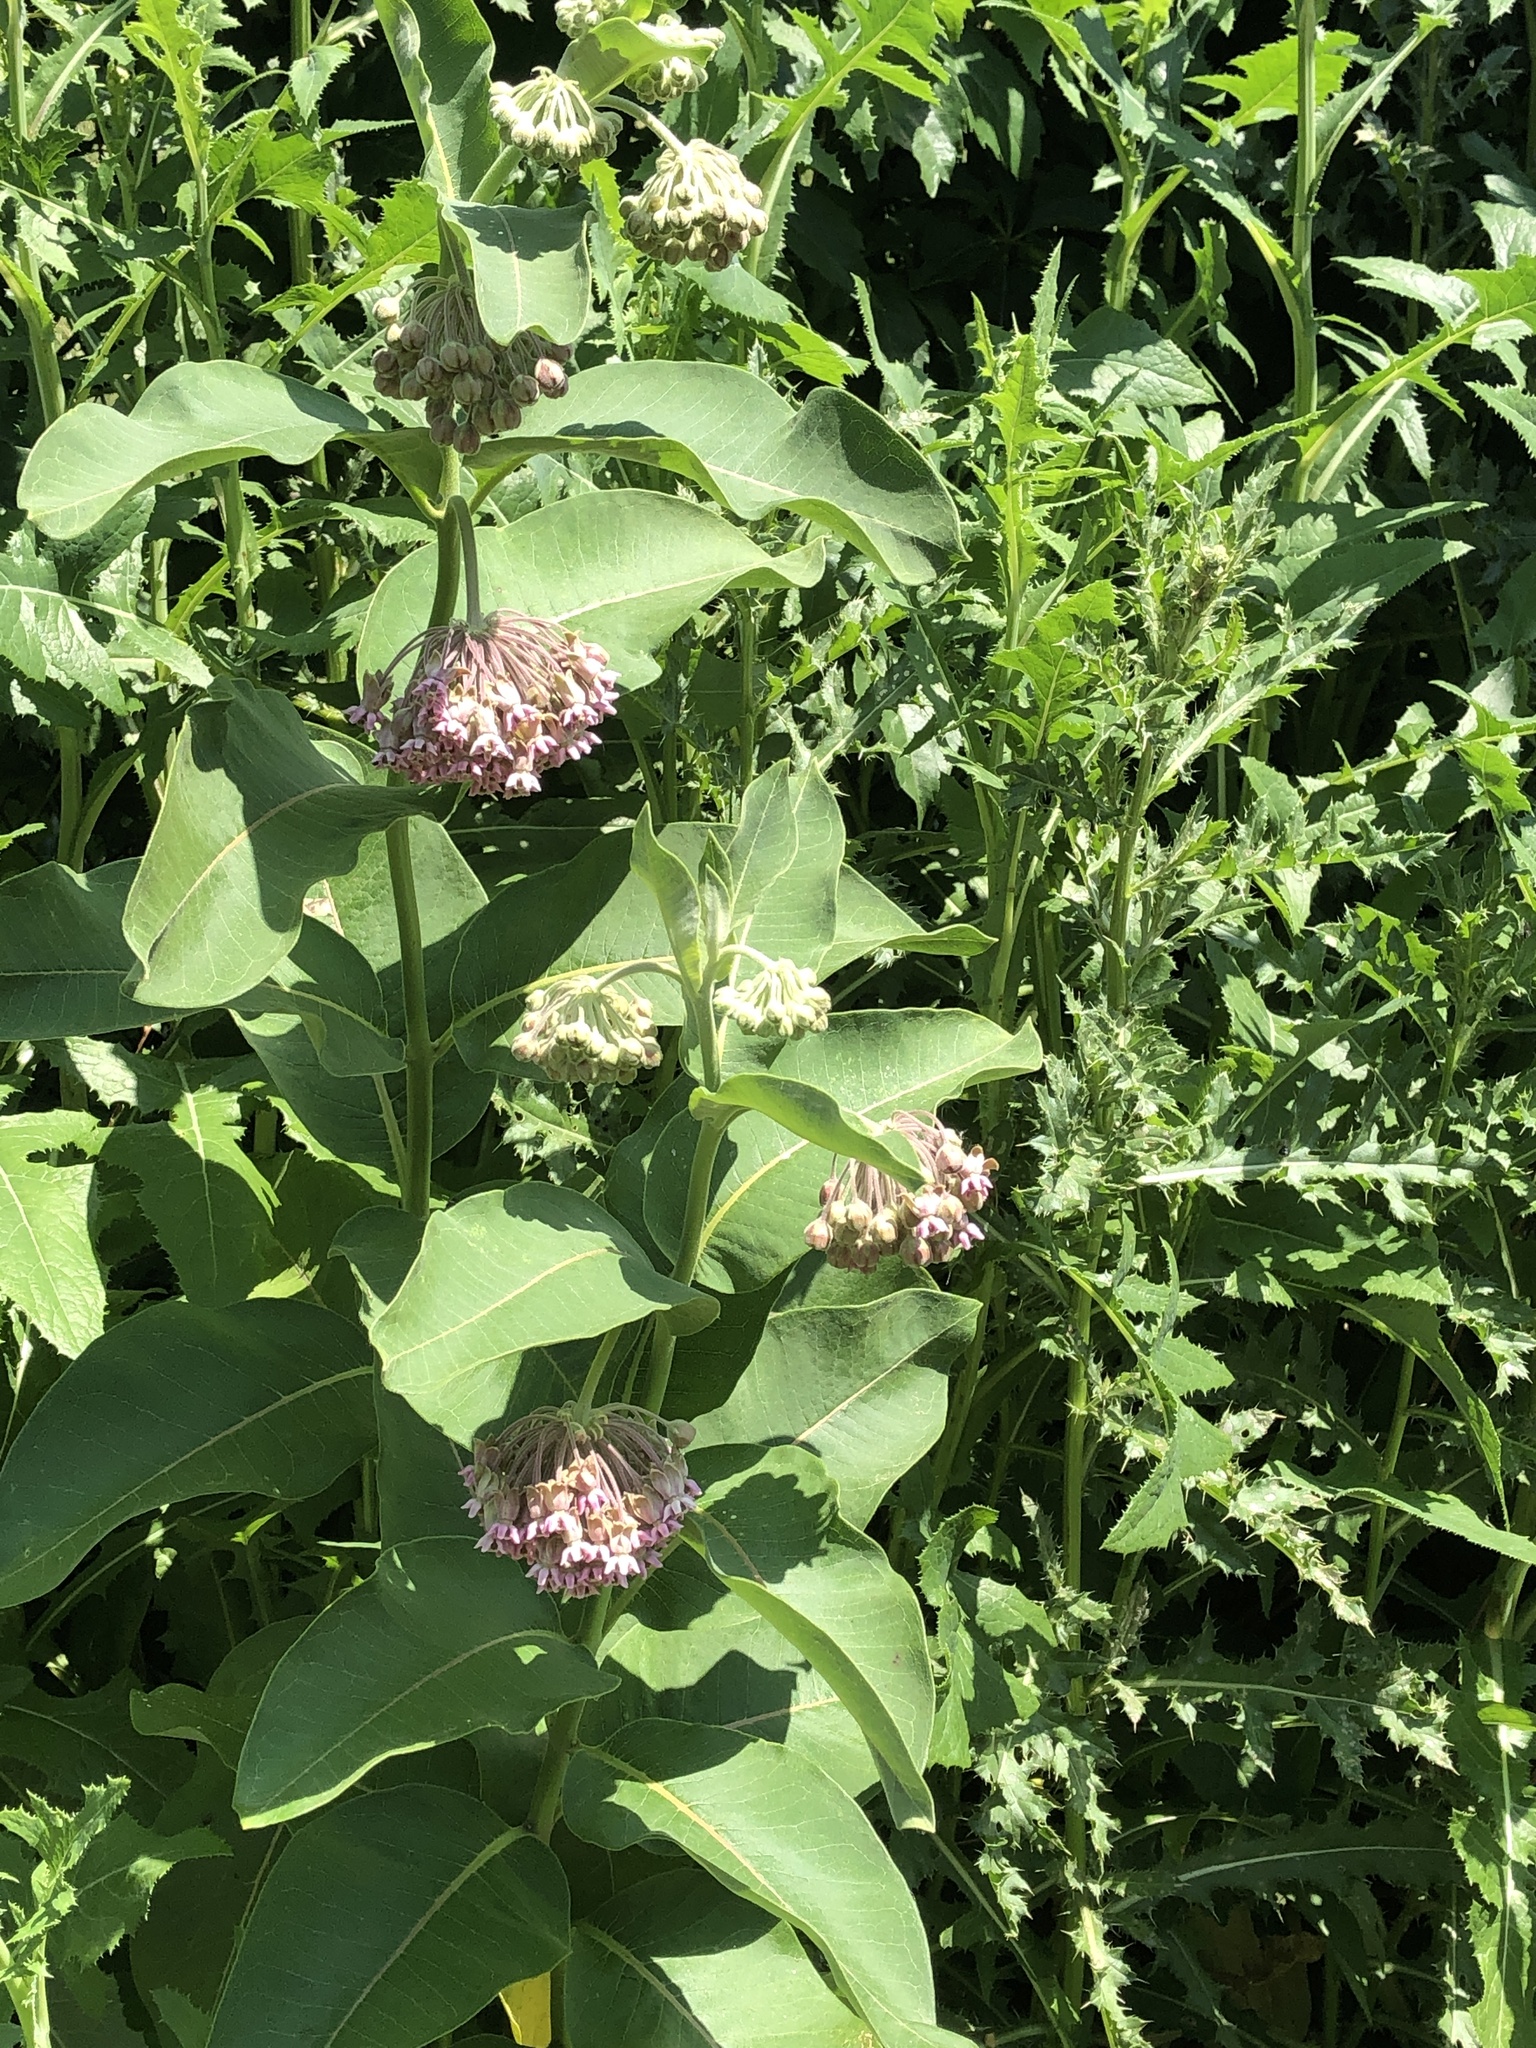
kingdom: Plantae
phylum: Tracheophyta
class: Magnoliopsida
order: Gentianales
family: Apocynaceae
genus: Asclepias
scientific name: Asclepias syriaca
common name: Common milkweed
